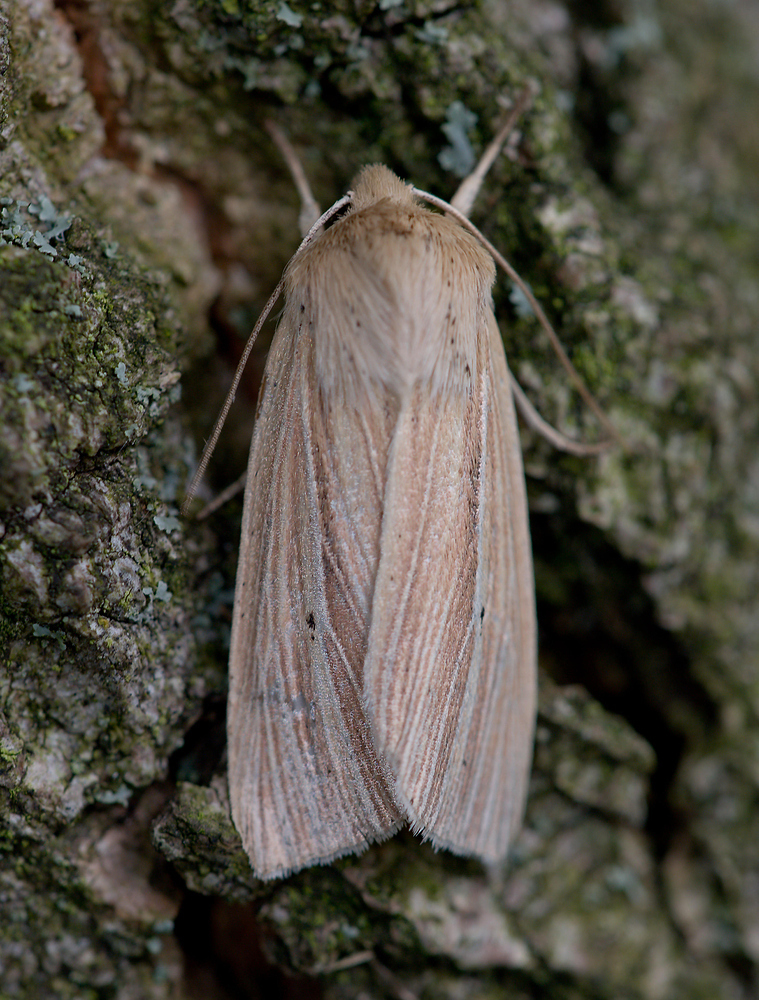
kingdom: Animalia
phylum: Arthropoda
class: Insecta
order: Lepidoptera
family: Noctuidae
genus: Mythimna
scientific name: Mythimna impura
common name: Smoky wainscot
